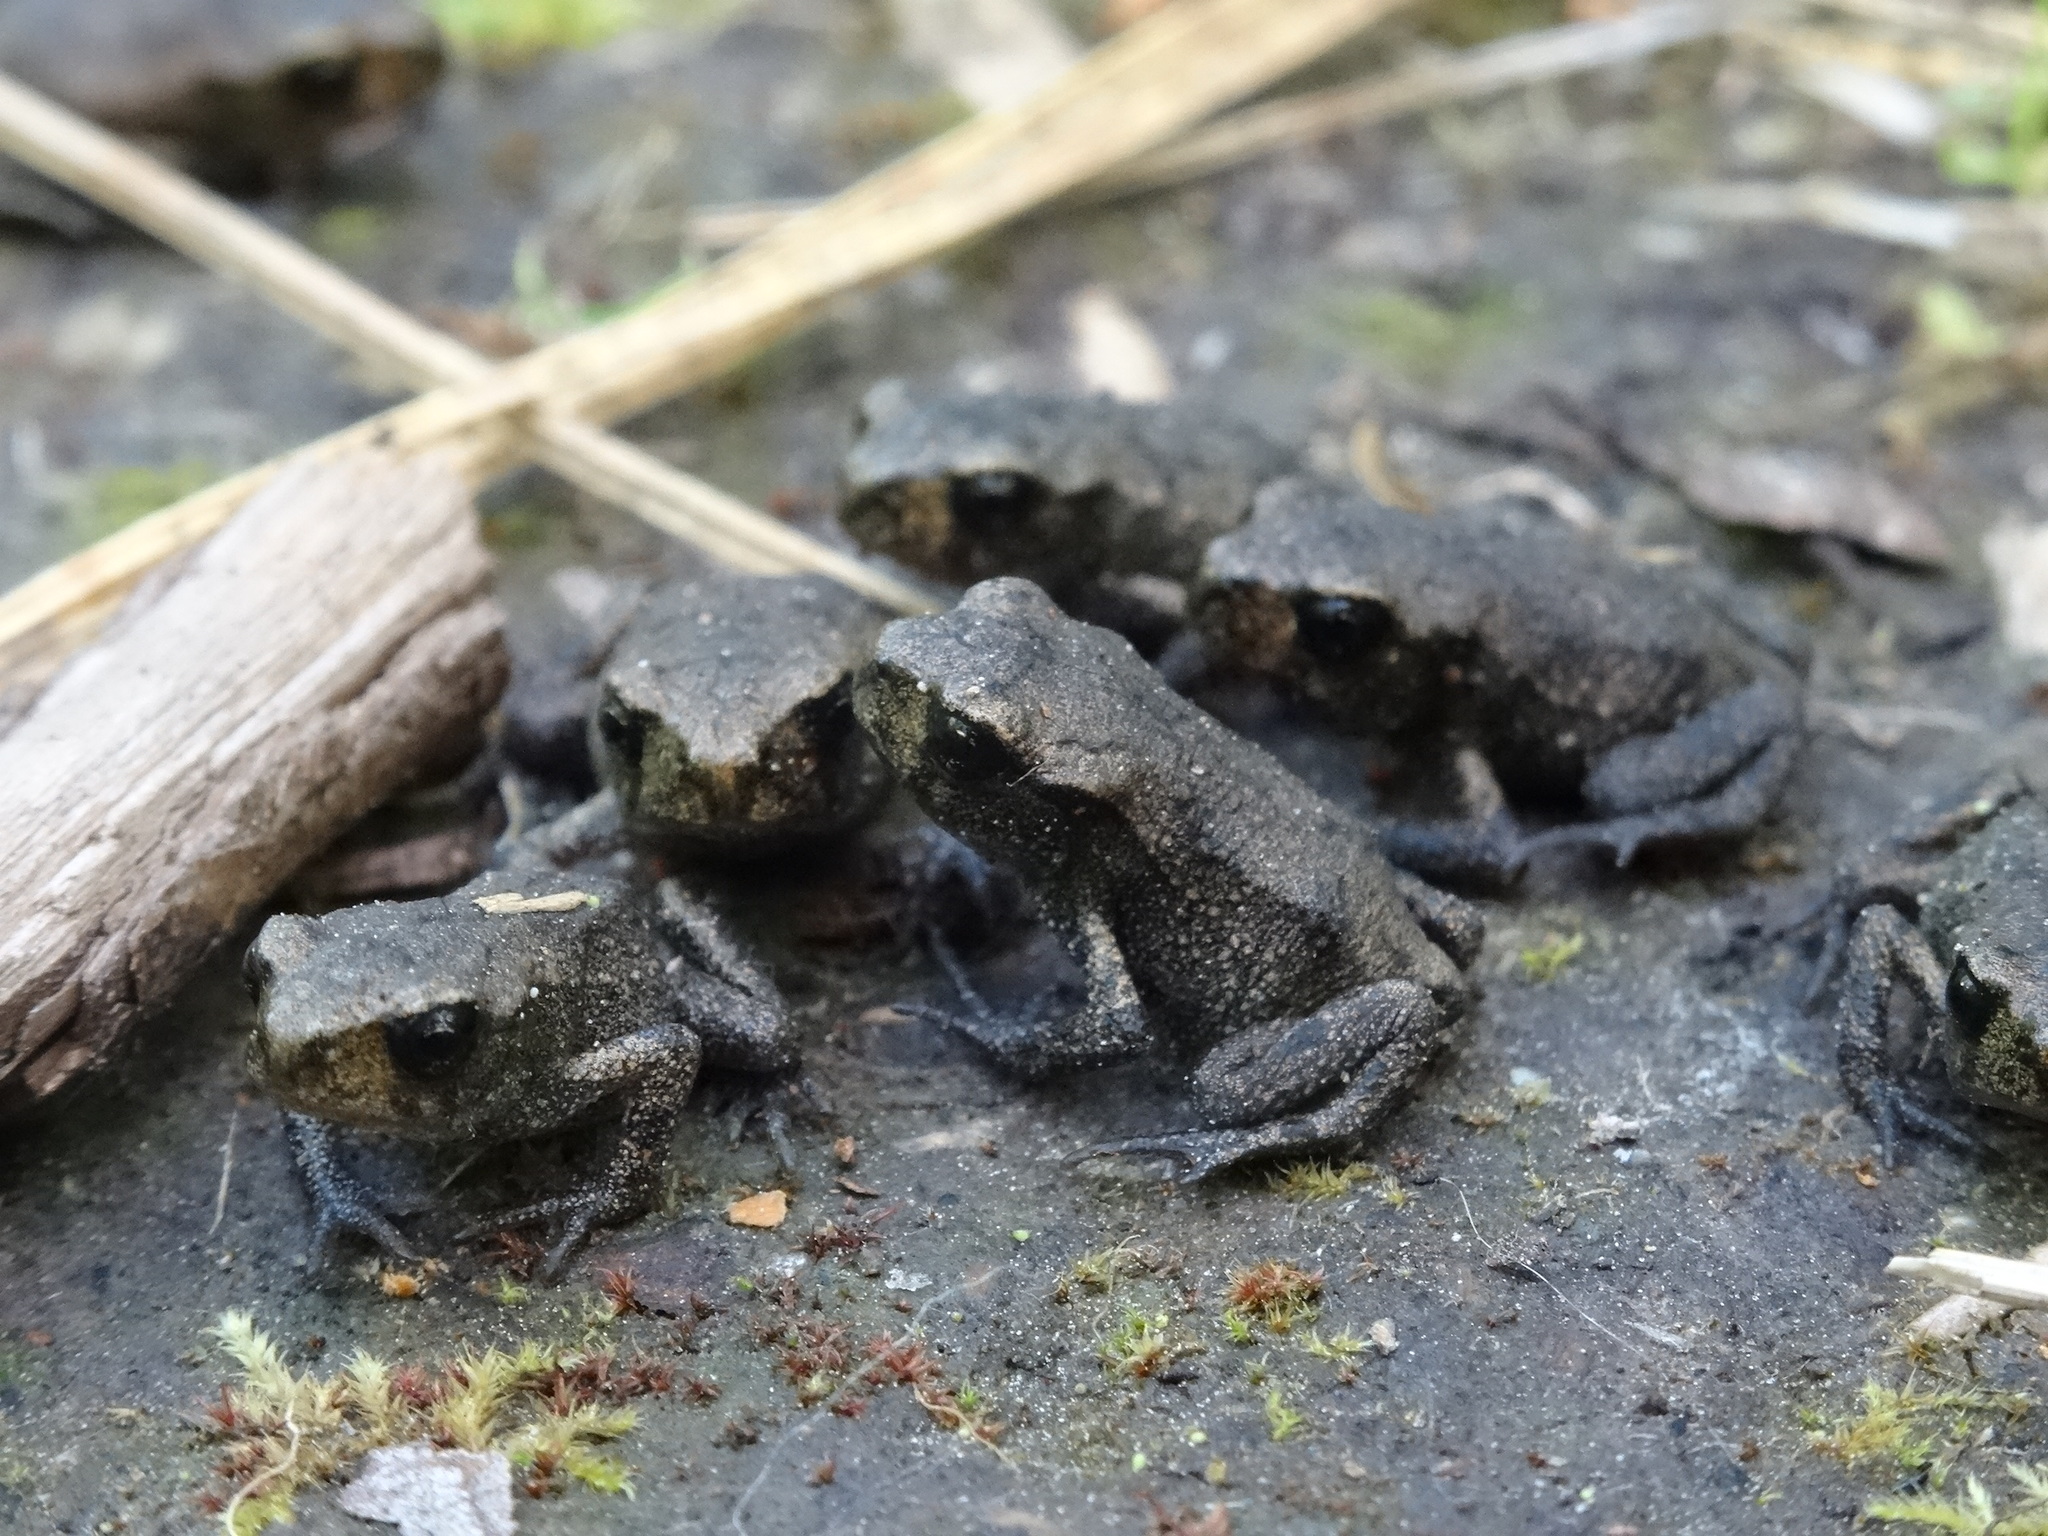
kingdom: Animalia
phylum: Chordata
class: Amphibia
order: Anura
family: Bufonidae
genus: Bufo
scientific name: Bufo bufo
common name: Common toad
